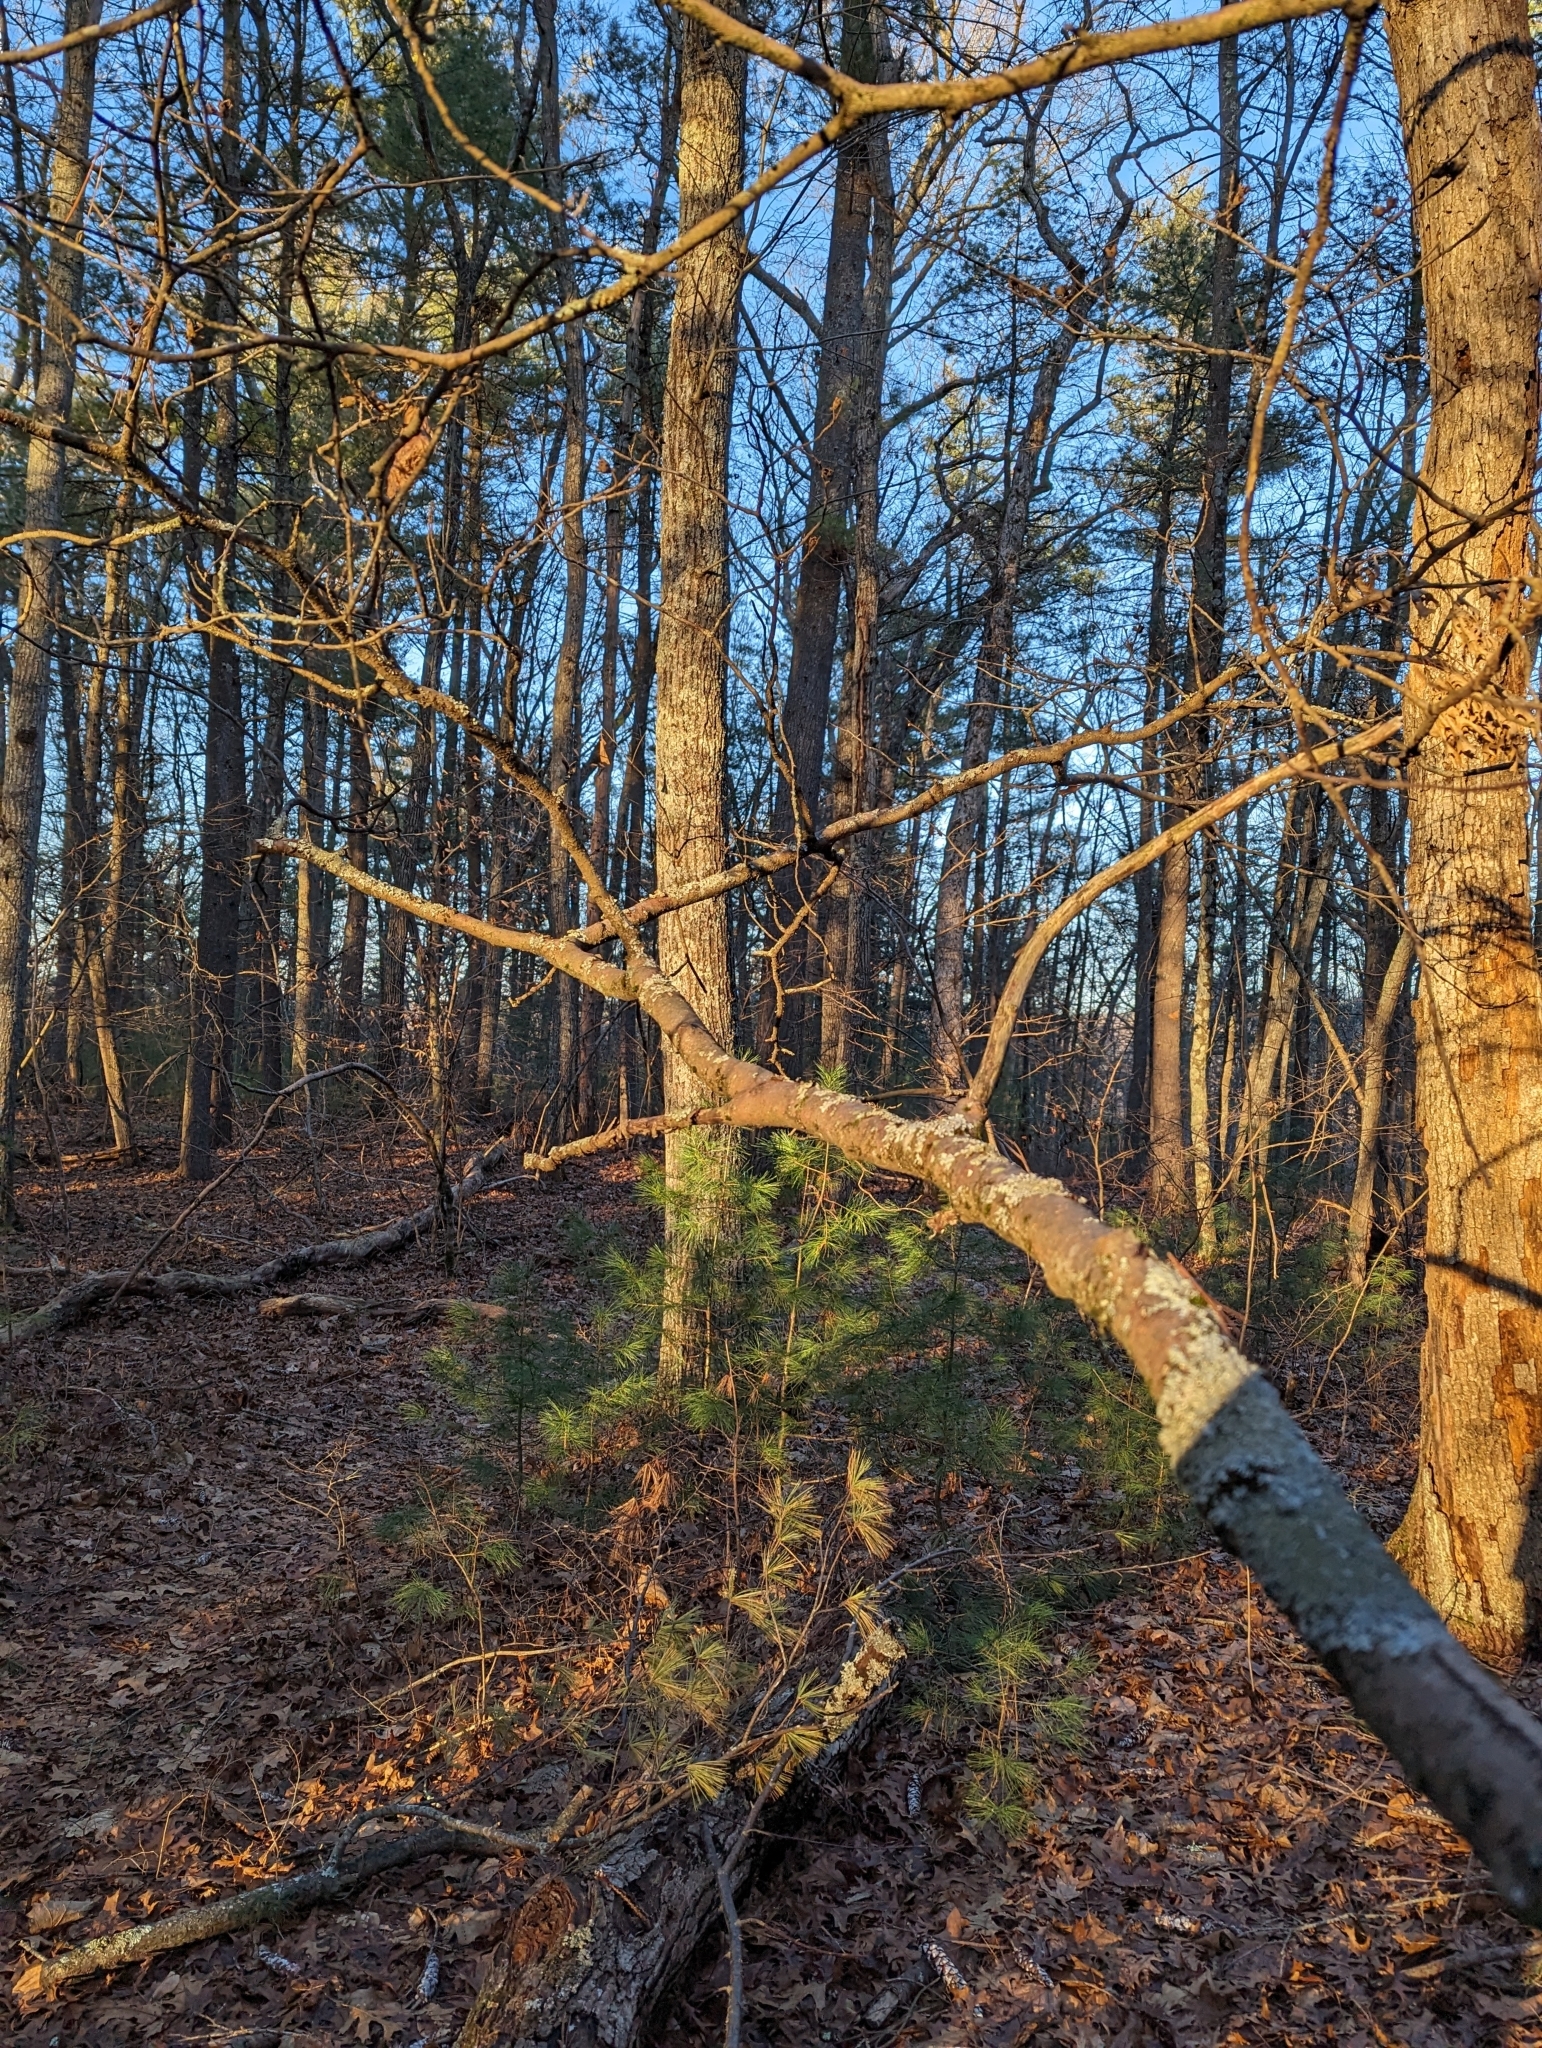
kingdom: Plantae
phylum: Tracheophyta
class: Magnoliopsida
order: Saxifragales
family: Hamamelidaceae
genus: Hamamelis
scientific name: Hamamelis virginiana
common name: Witch-hazel
